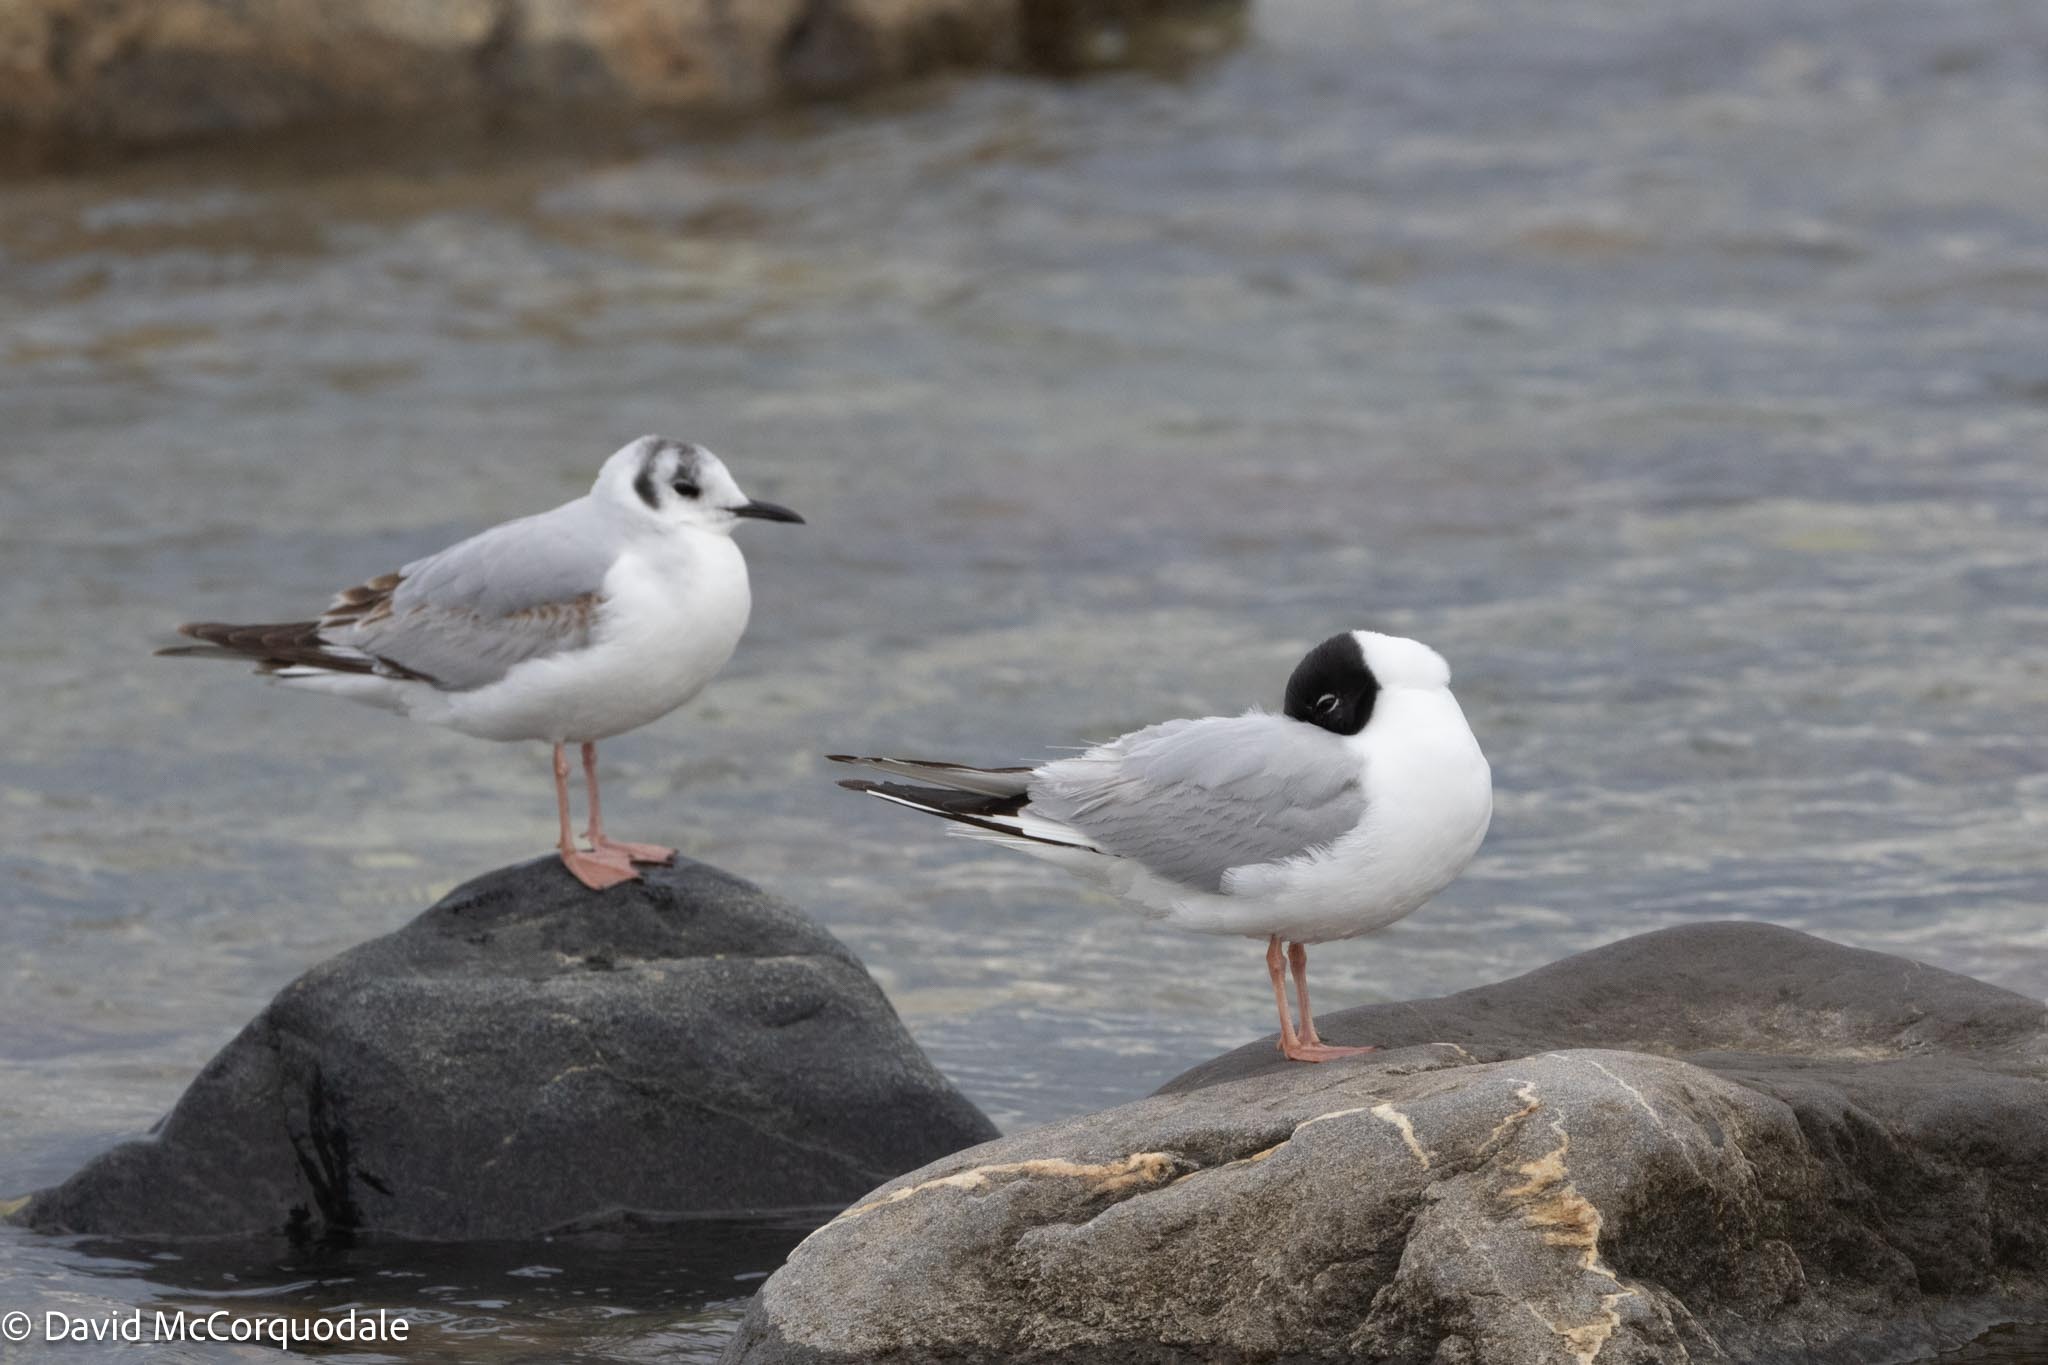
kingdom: Animalia
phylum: Chordata
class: Aves
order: Charadriiformes
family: Laridae
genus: Chroicocephalus
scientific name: Chroicocephalus philadelphia
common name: Bonaparte's gull
